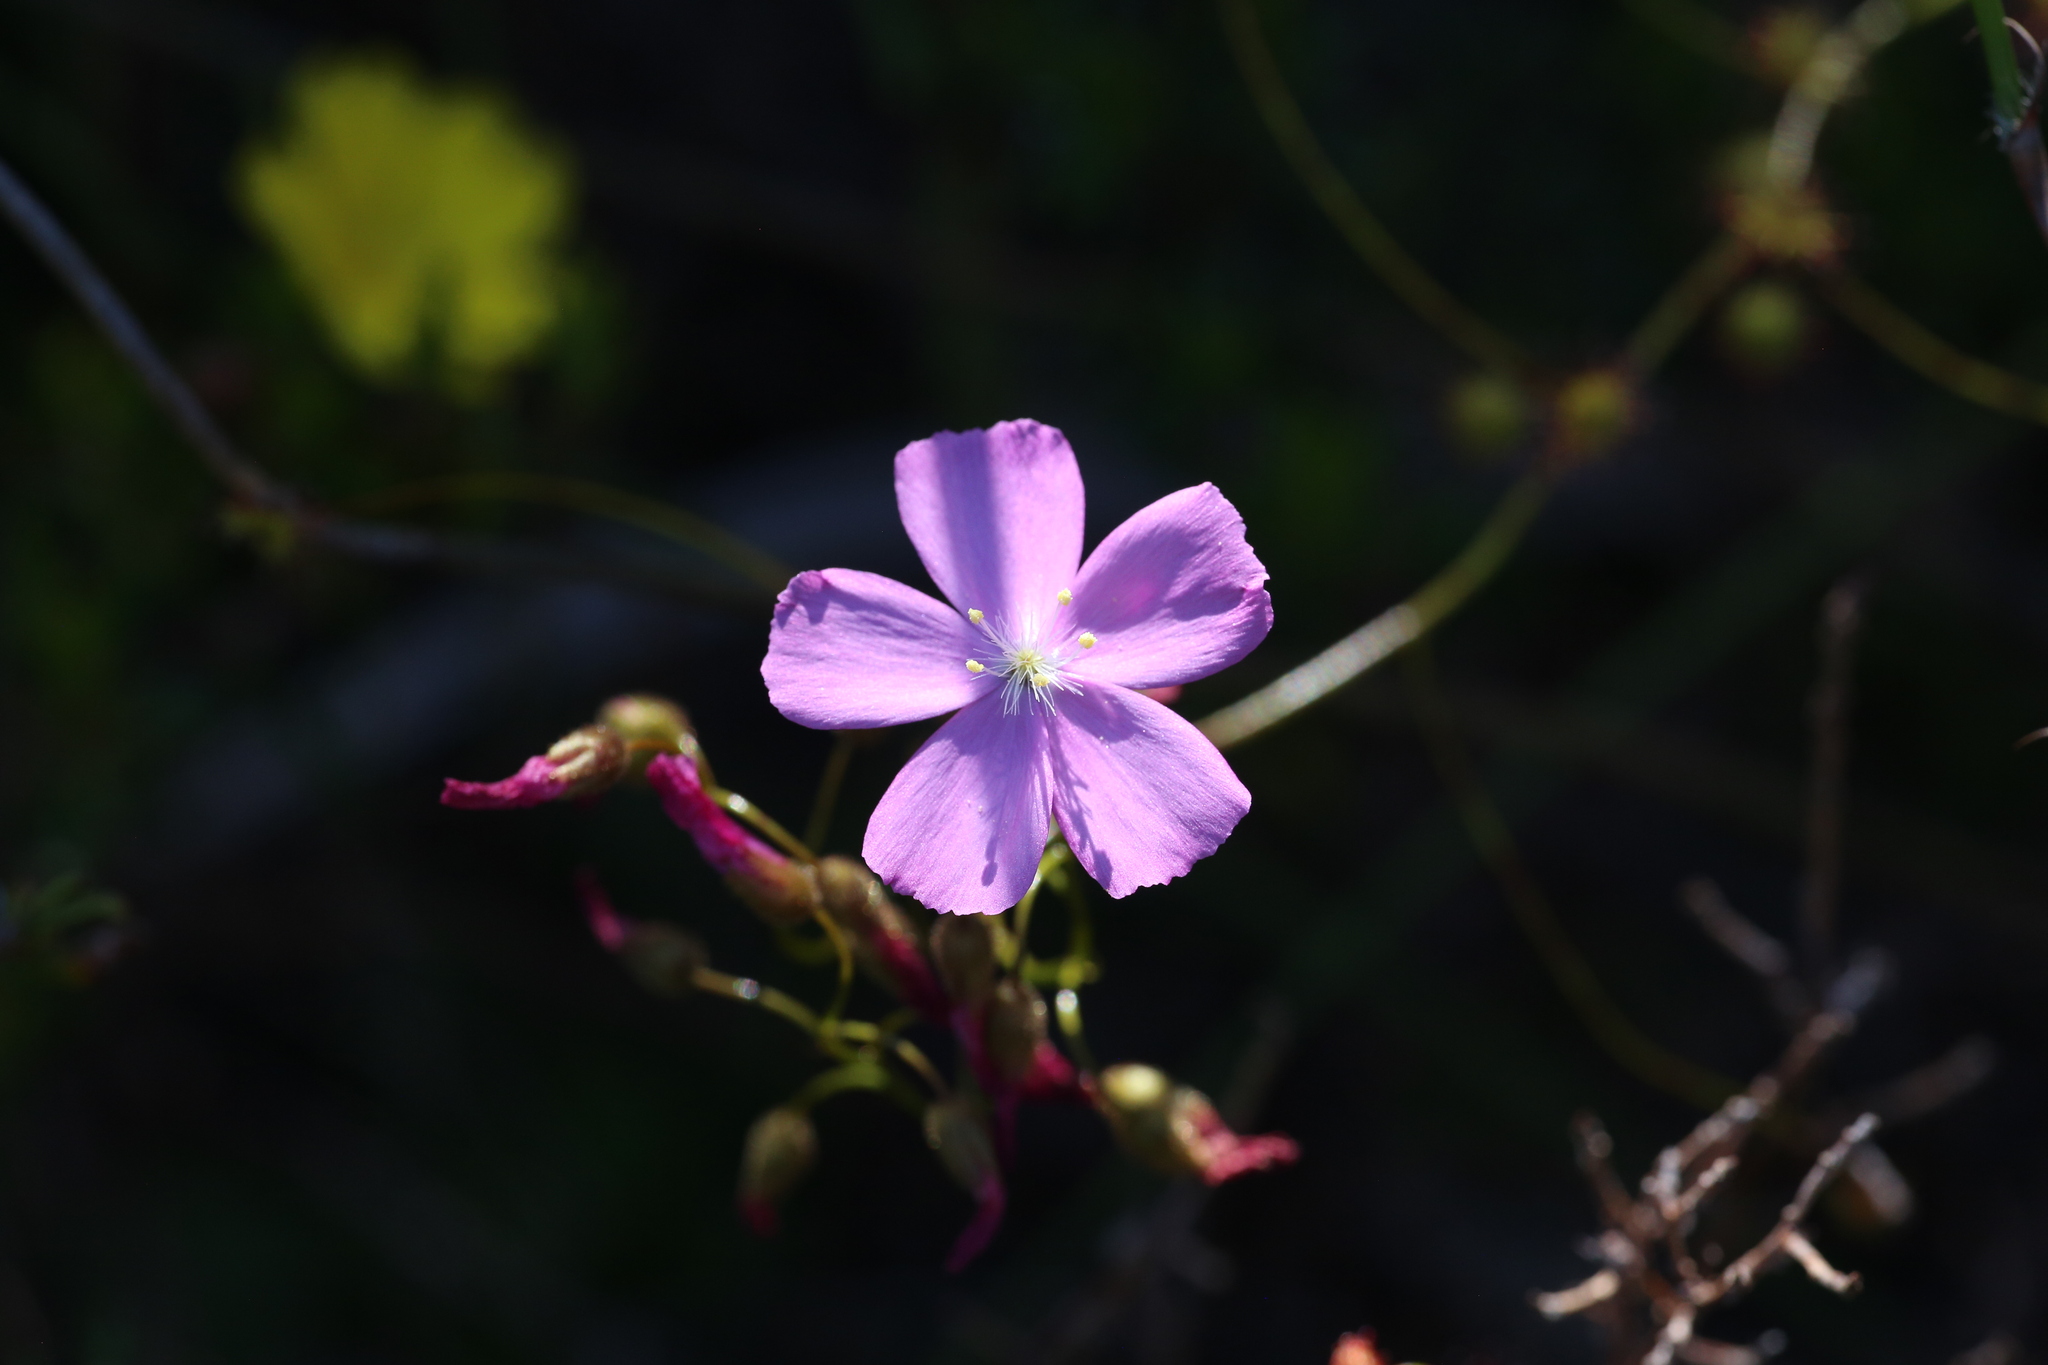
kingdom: Plantae
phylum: Tracheophyta
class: Magnoliopsida
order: Caryophyllales
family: Droseraceae
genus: Drosera
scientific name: Drosera
